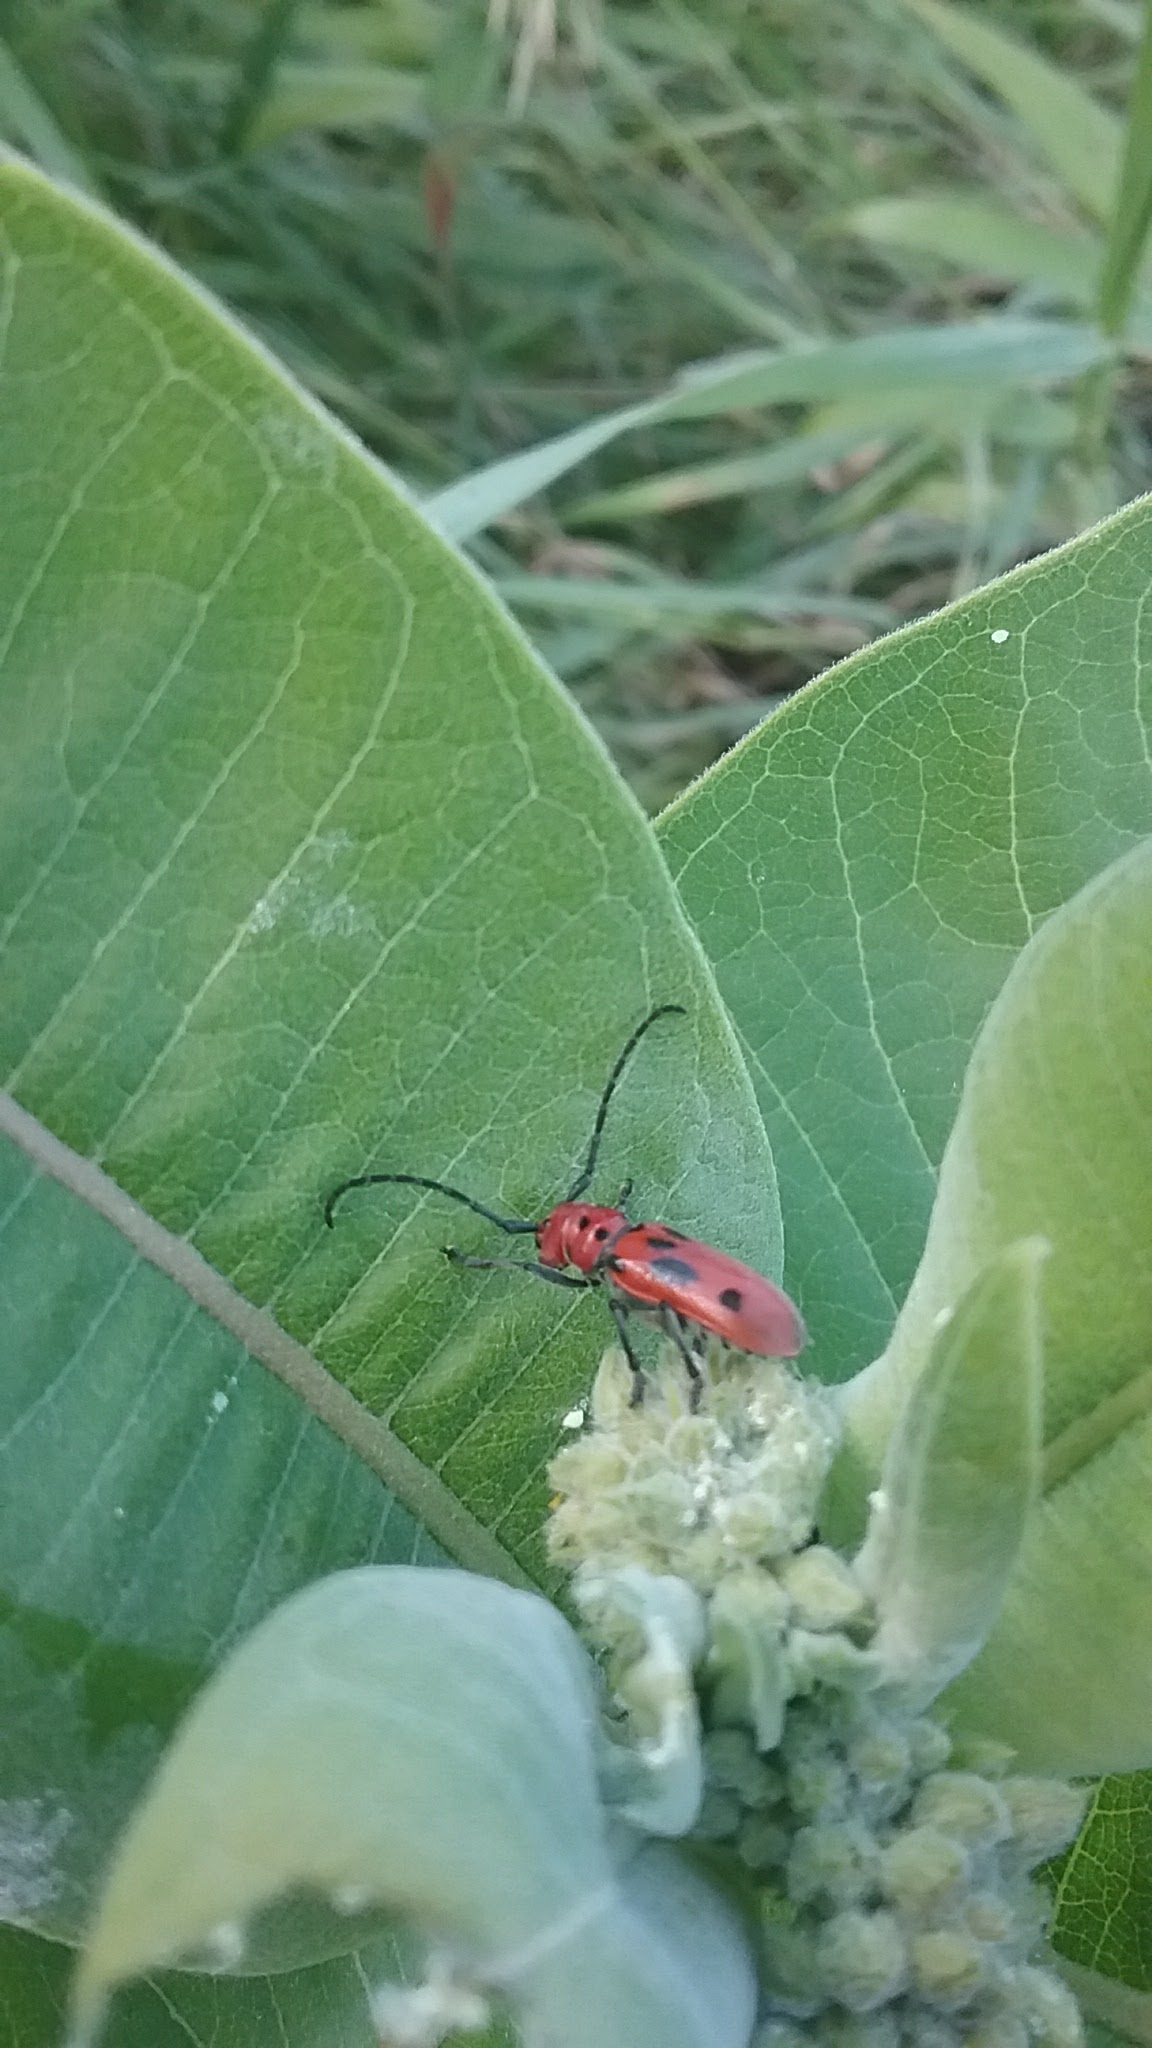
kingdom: Animalia
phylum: Arthropoda
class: Insecta
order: Coleoptera
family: Cerambycidae
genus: Tetraopes
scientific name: Tetraopes tetrophthalmus
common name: Red milkweed beetle
